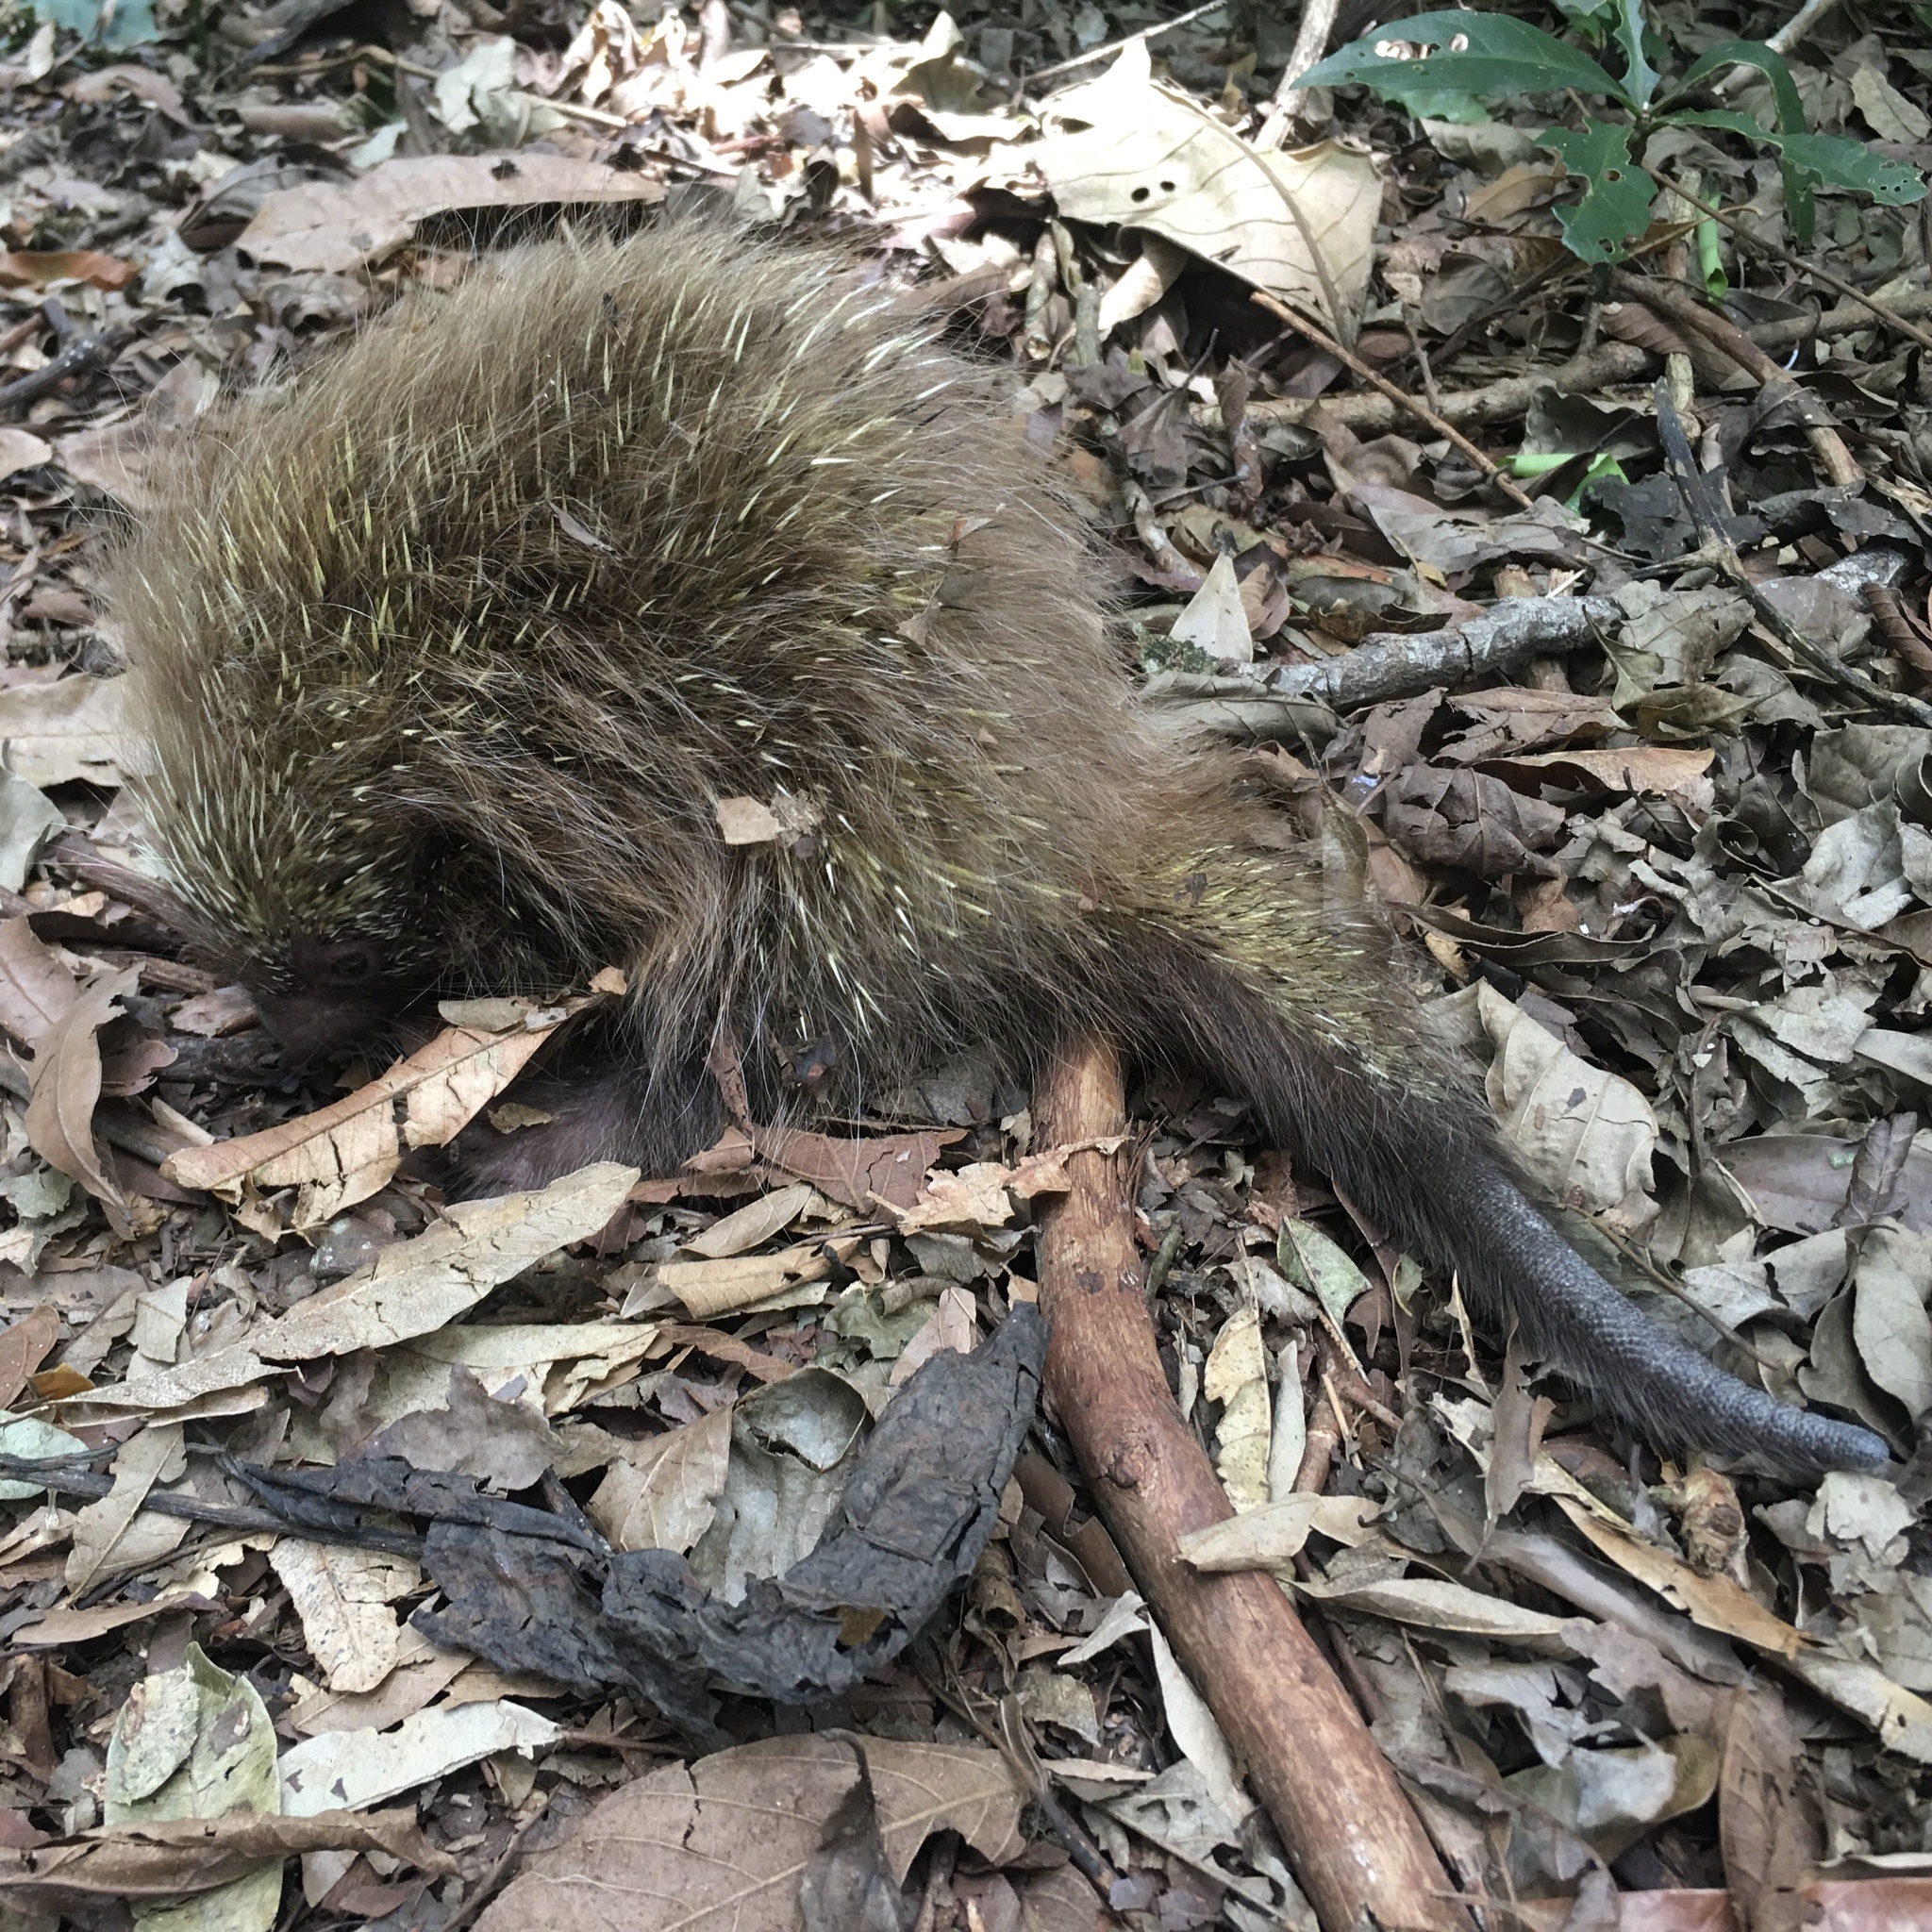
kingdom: Animalia
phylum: Chordata
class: Mammalia
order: Rodentia
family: Erethizontidae
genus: Sphiggurus
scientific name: Sphiggurus spinosus
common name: Paraguaian hairy dwarf porcupine
